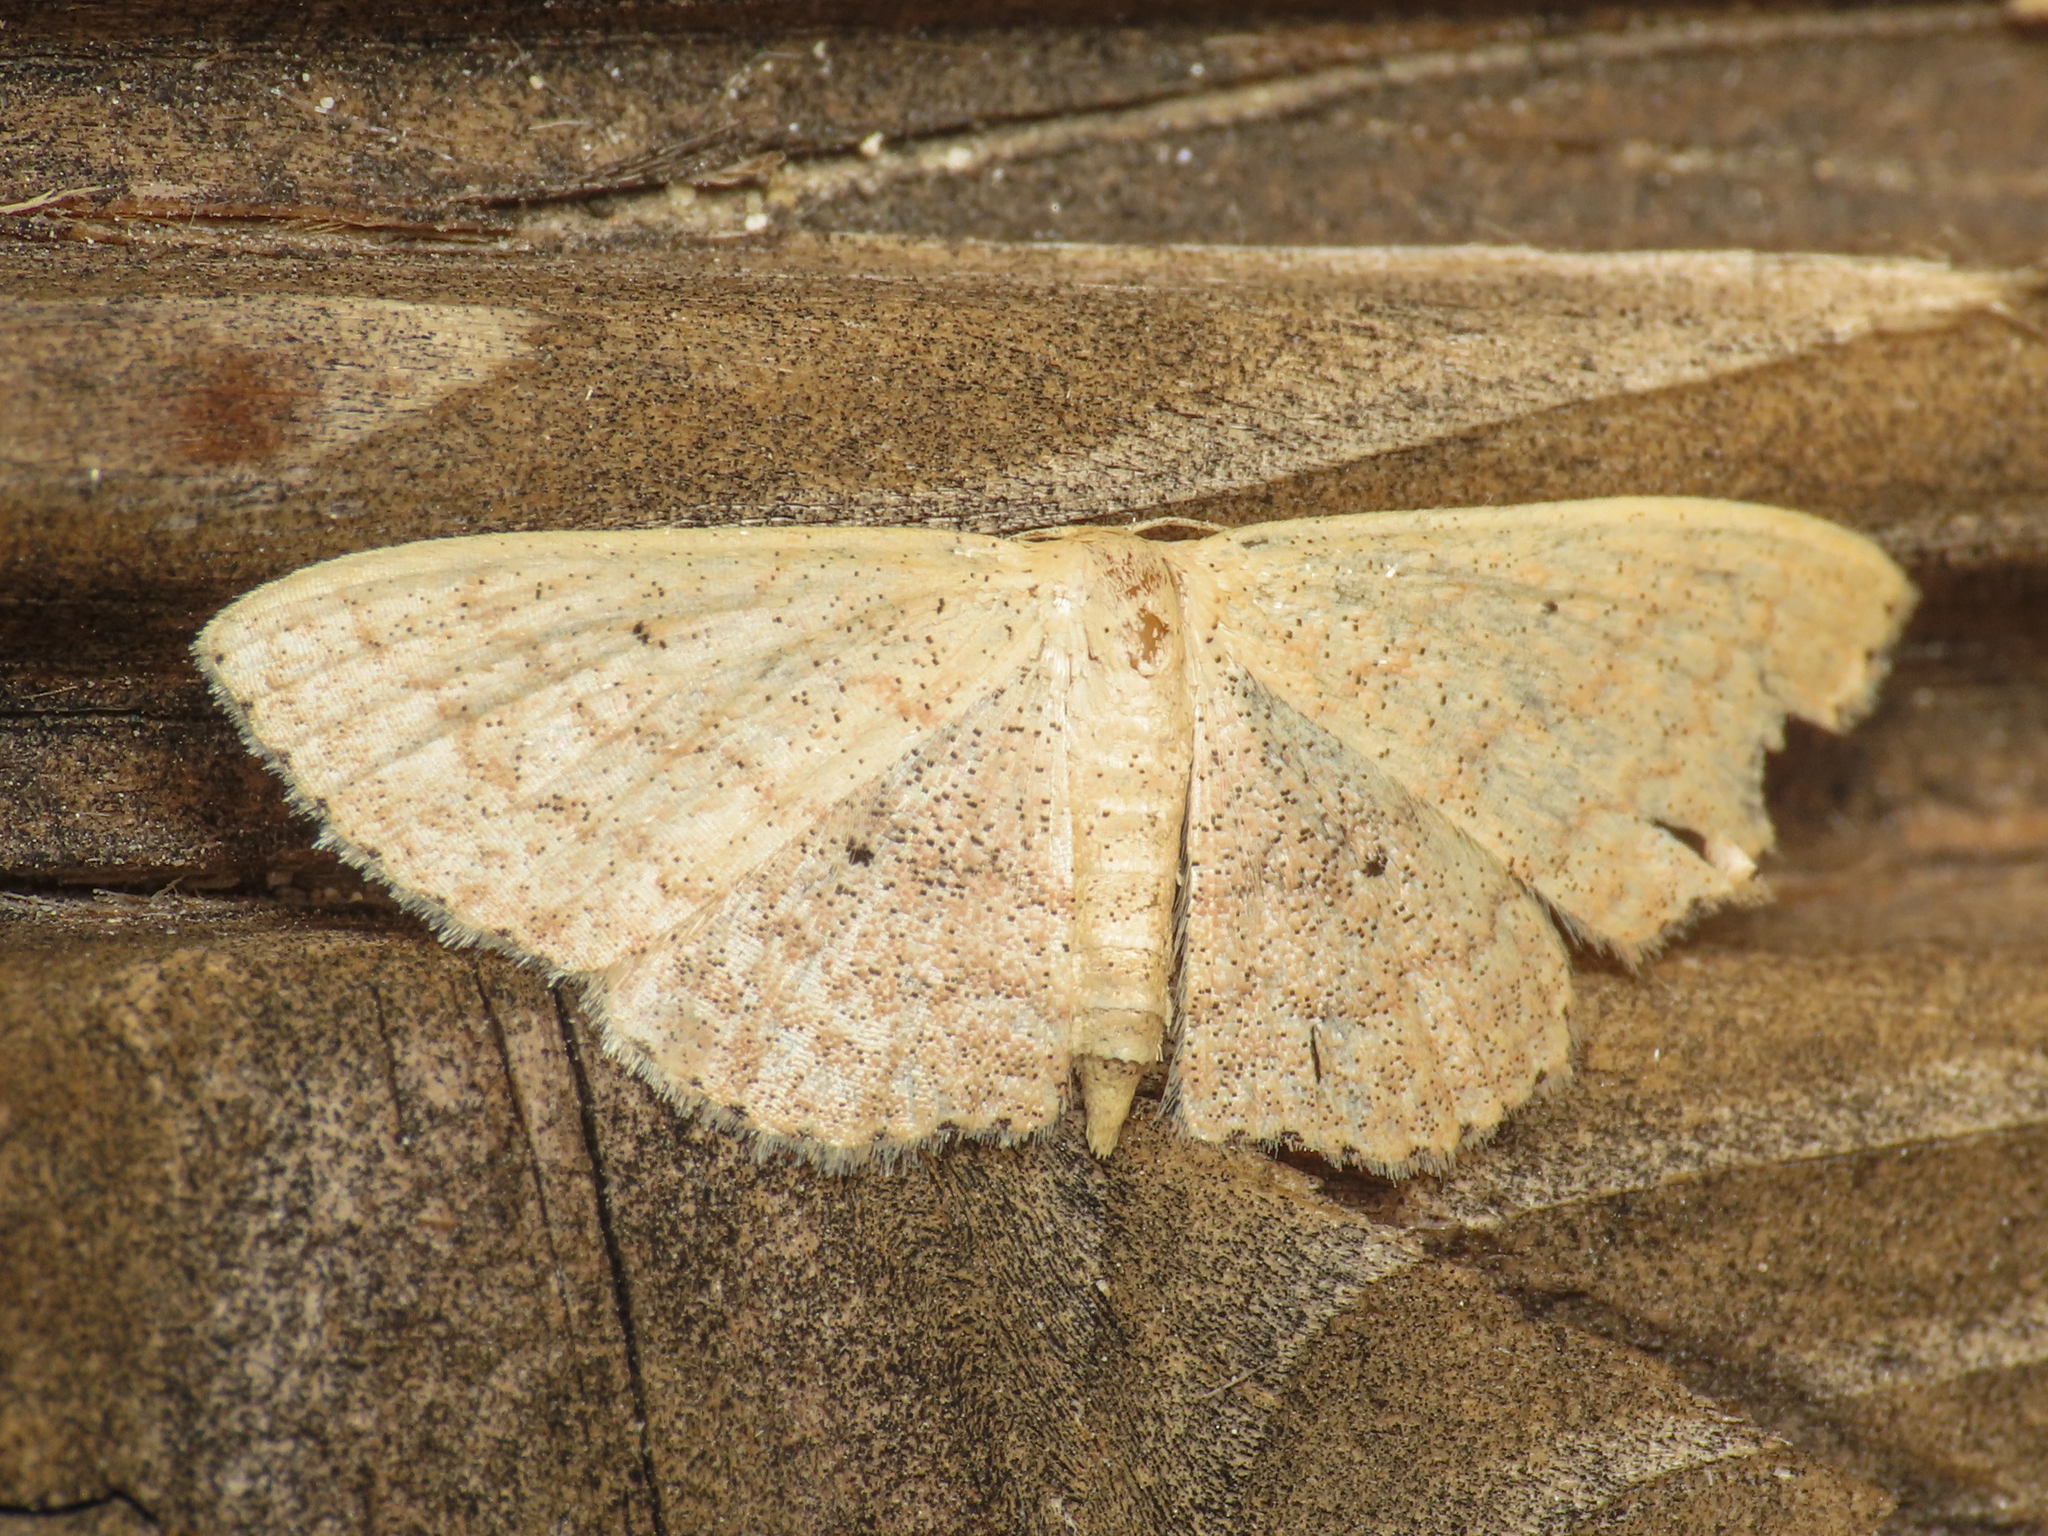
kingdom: Animalia
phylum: Arthropoda
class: Insecta
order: Lepidoptera
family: Geometridae
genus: Scopula
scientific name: Scopula minorata
